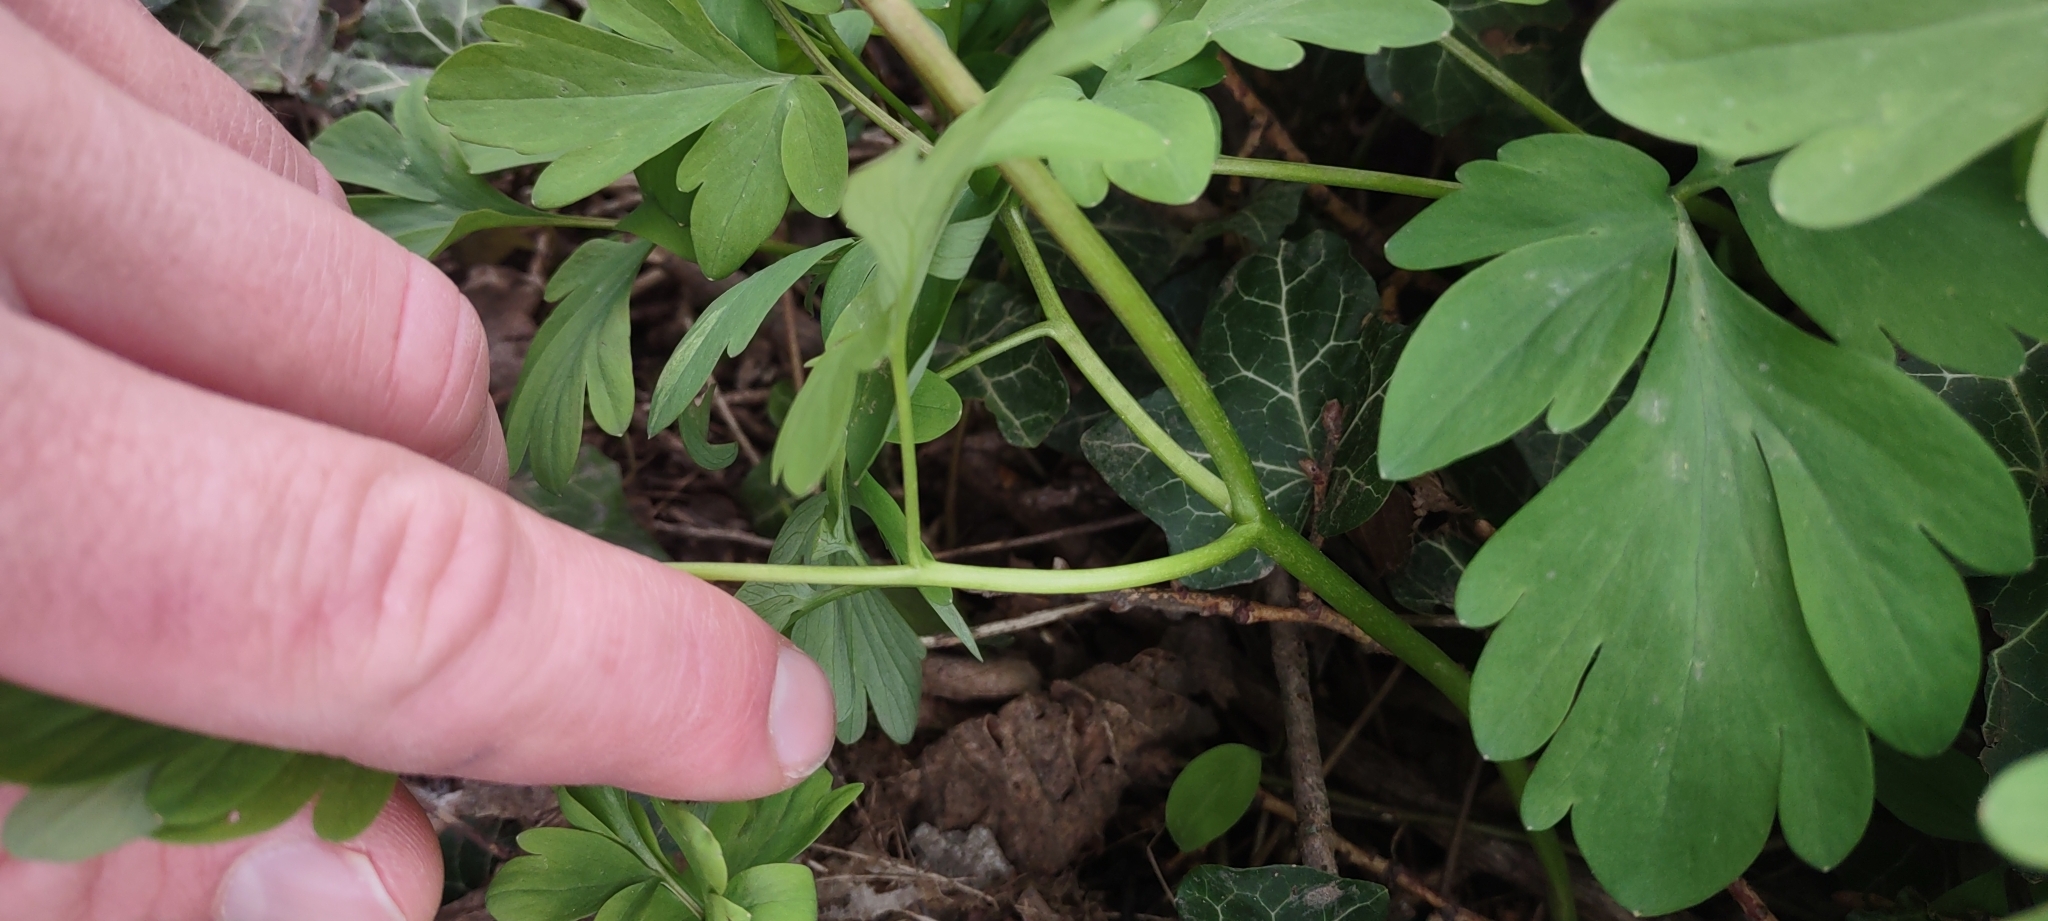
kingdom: Plantae
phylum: Tracheophyta
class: Magnoliopsida
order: Ranunculales
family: Papaveraceae
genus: Corydalis
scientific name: Corydalis cava
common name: Hollowroot
